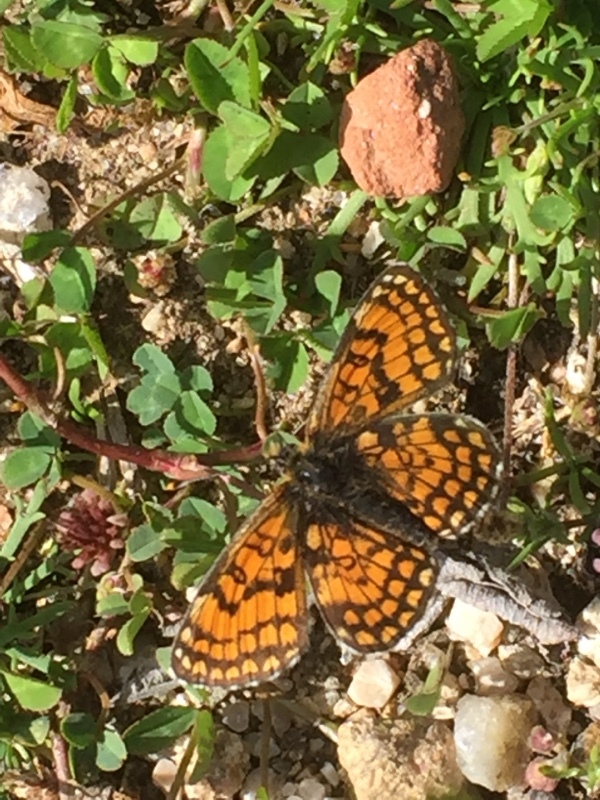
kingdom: Animalia
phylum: Arthropoda
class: Insecta
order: Lepidoptera
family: Nymphalidae
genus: Mellicta
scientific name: Mellicta parthenoides
